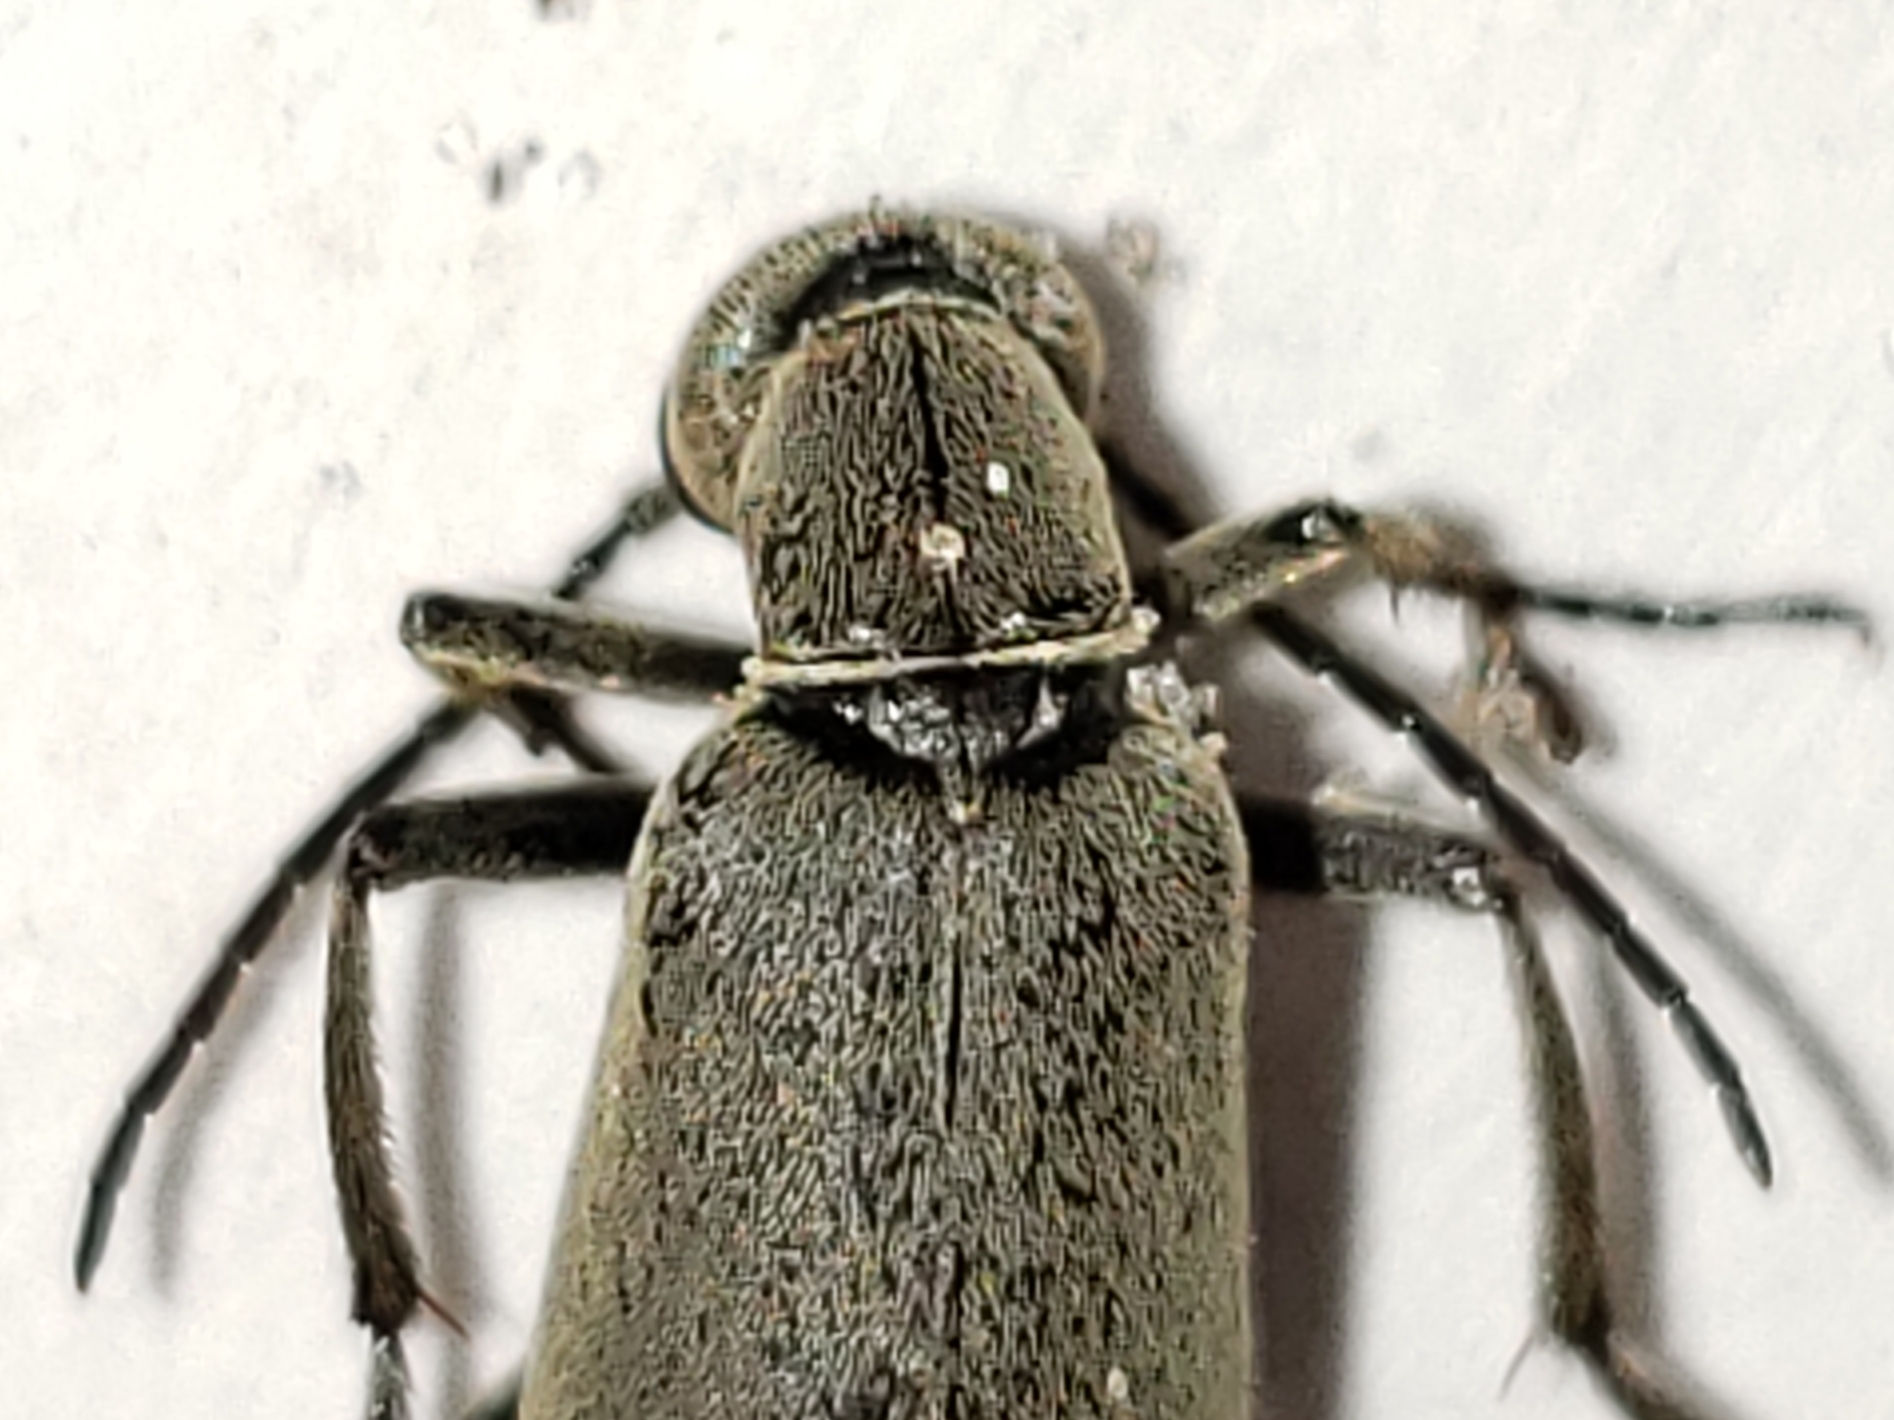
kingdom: Animalia
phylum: Arthropoda
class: Insecta
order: Coleoptera
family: Meloidae
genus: Epicauta
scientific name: Epicauta floridensis
